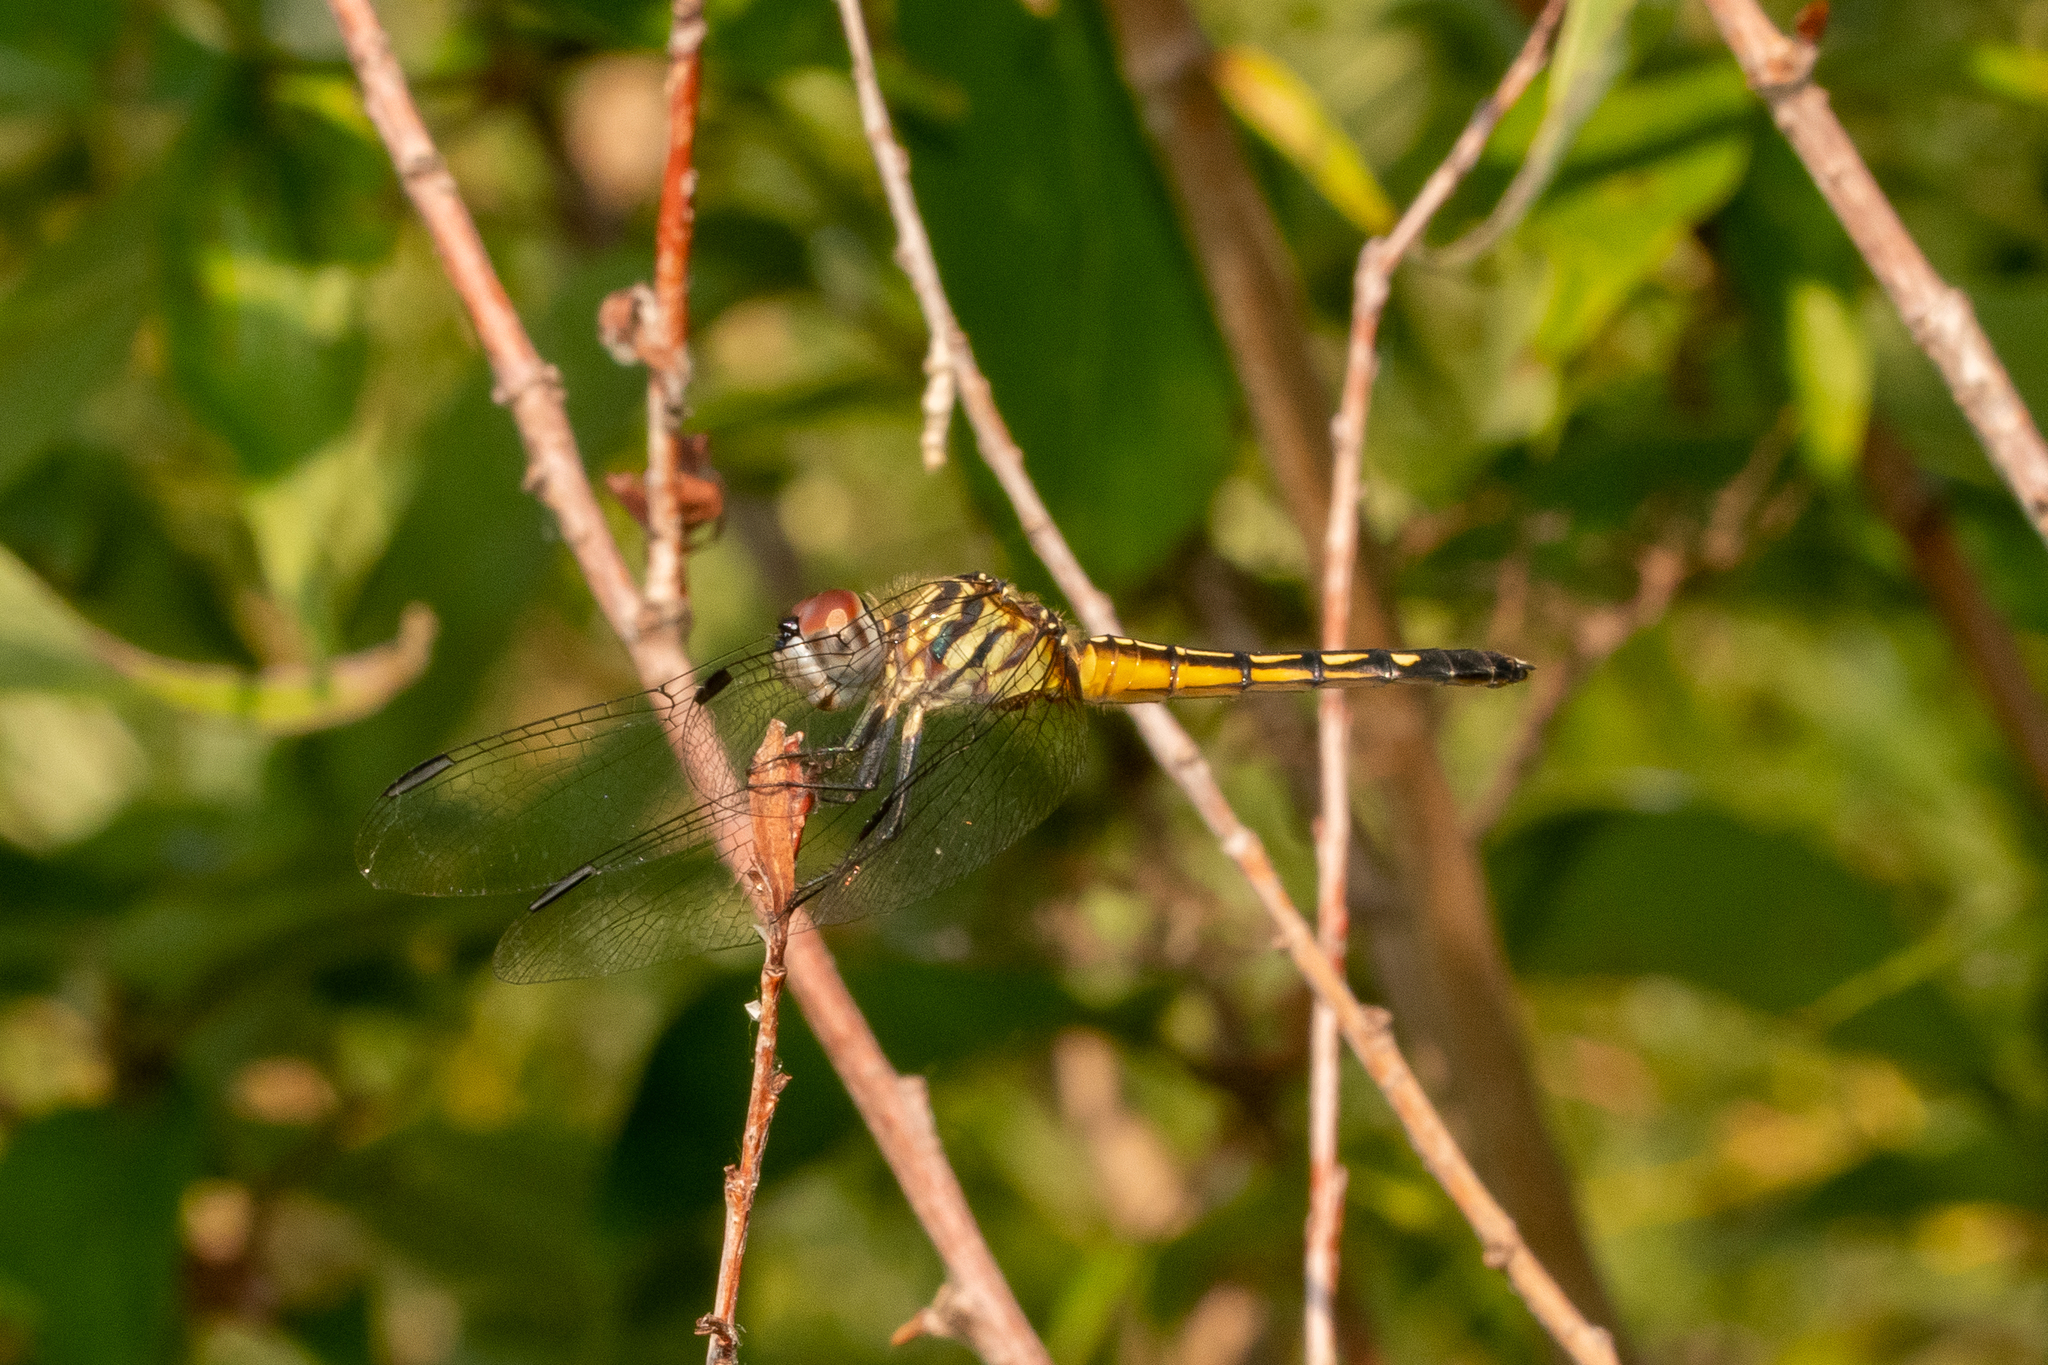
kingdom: Animalia
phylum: Arthropoda
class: Insecta
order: Odonata
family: Libellulidae
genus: Pachydiplax
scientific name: Pachydiplax longipennis
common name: Blue dasher
